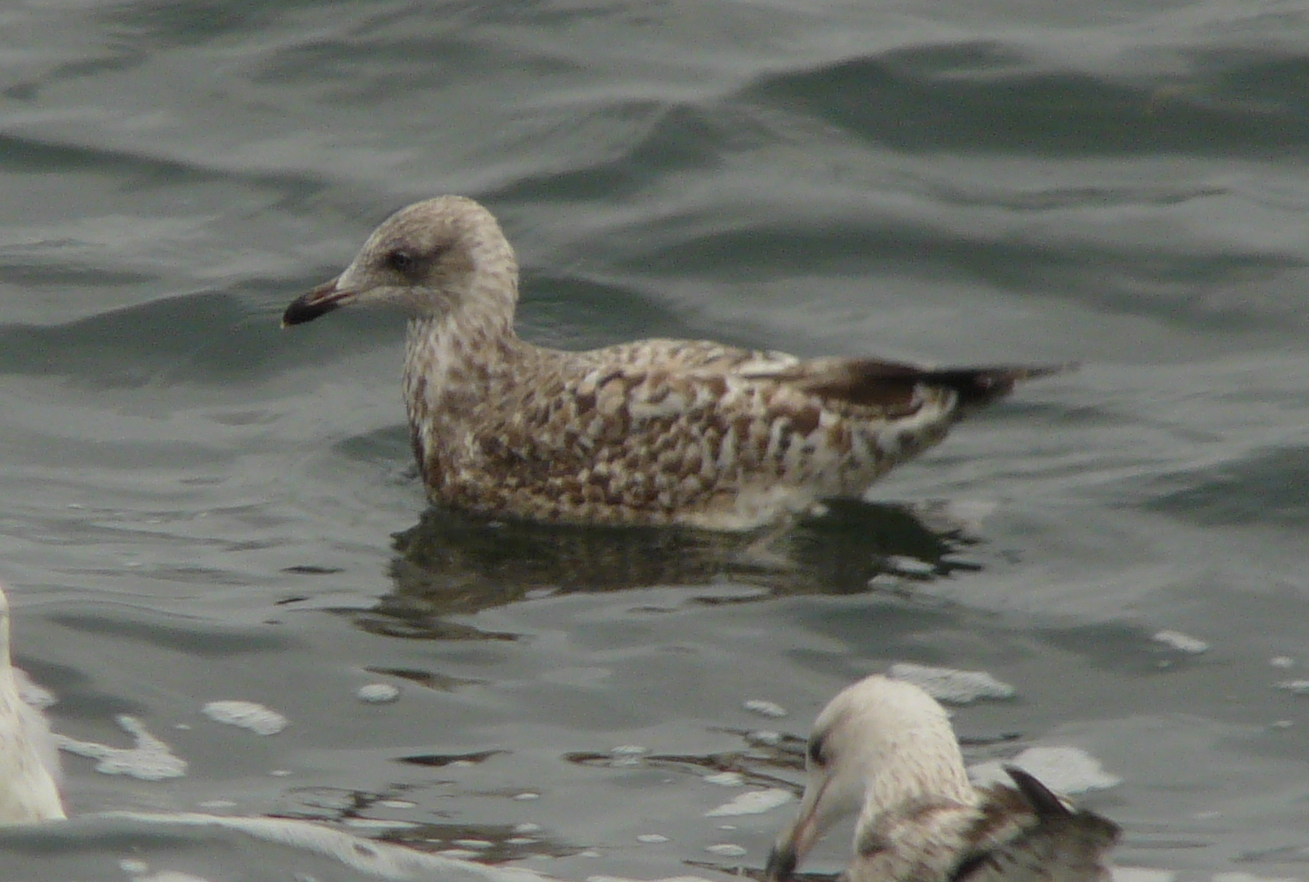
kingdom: Animalia
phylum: Chordata
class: Aves
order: Charadriiformes
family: Laridae
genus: Larus
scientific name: Larus argentatus
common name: Herring gull
